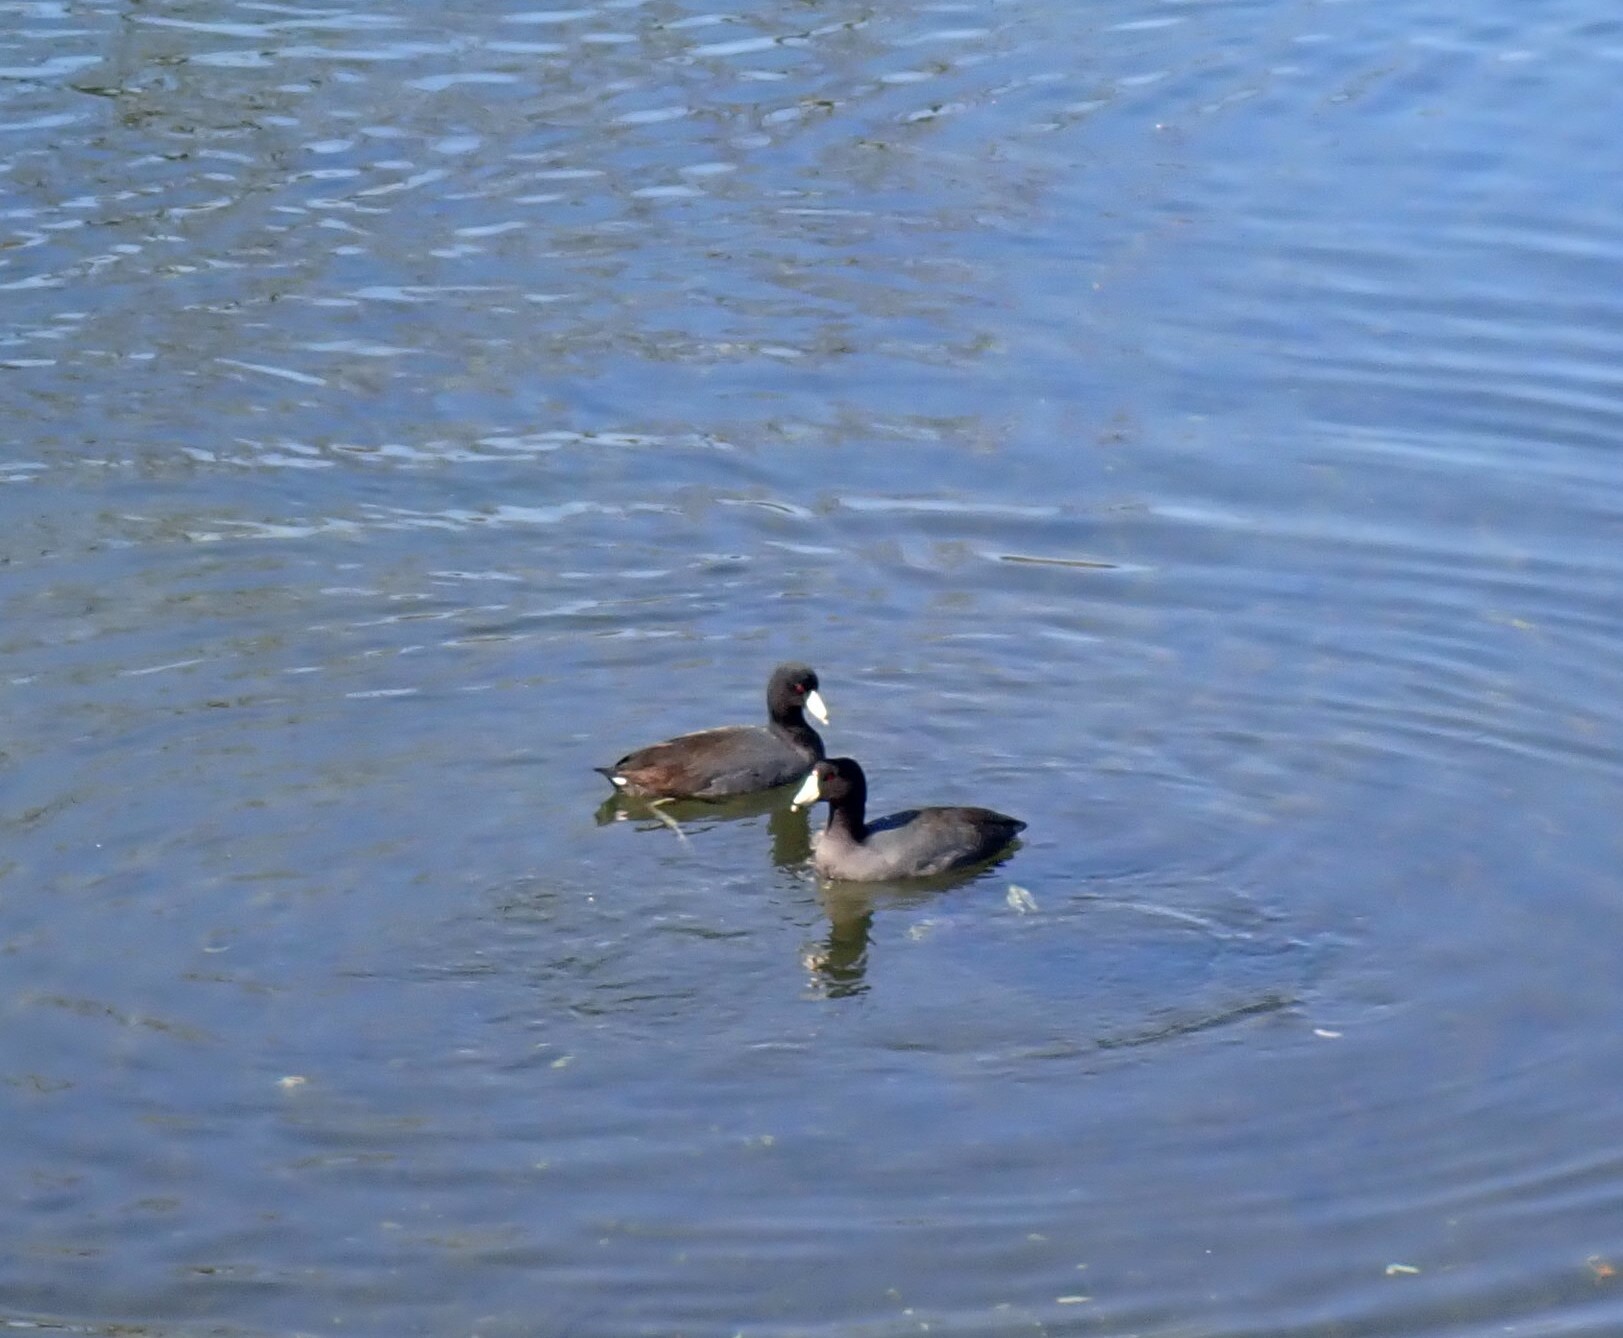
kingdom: Animalia
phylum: Chordata
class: Aves
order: Gruiformes
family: Rallidae
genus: Fulica
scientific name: Fulica americana
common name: American coot
